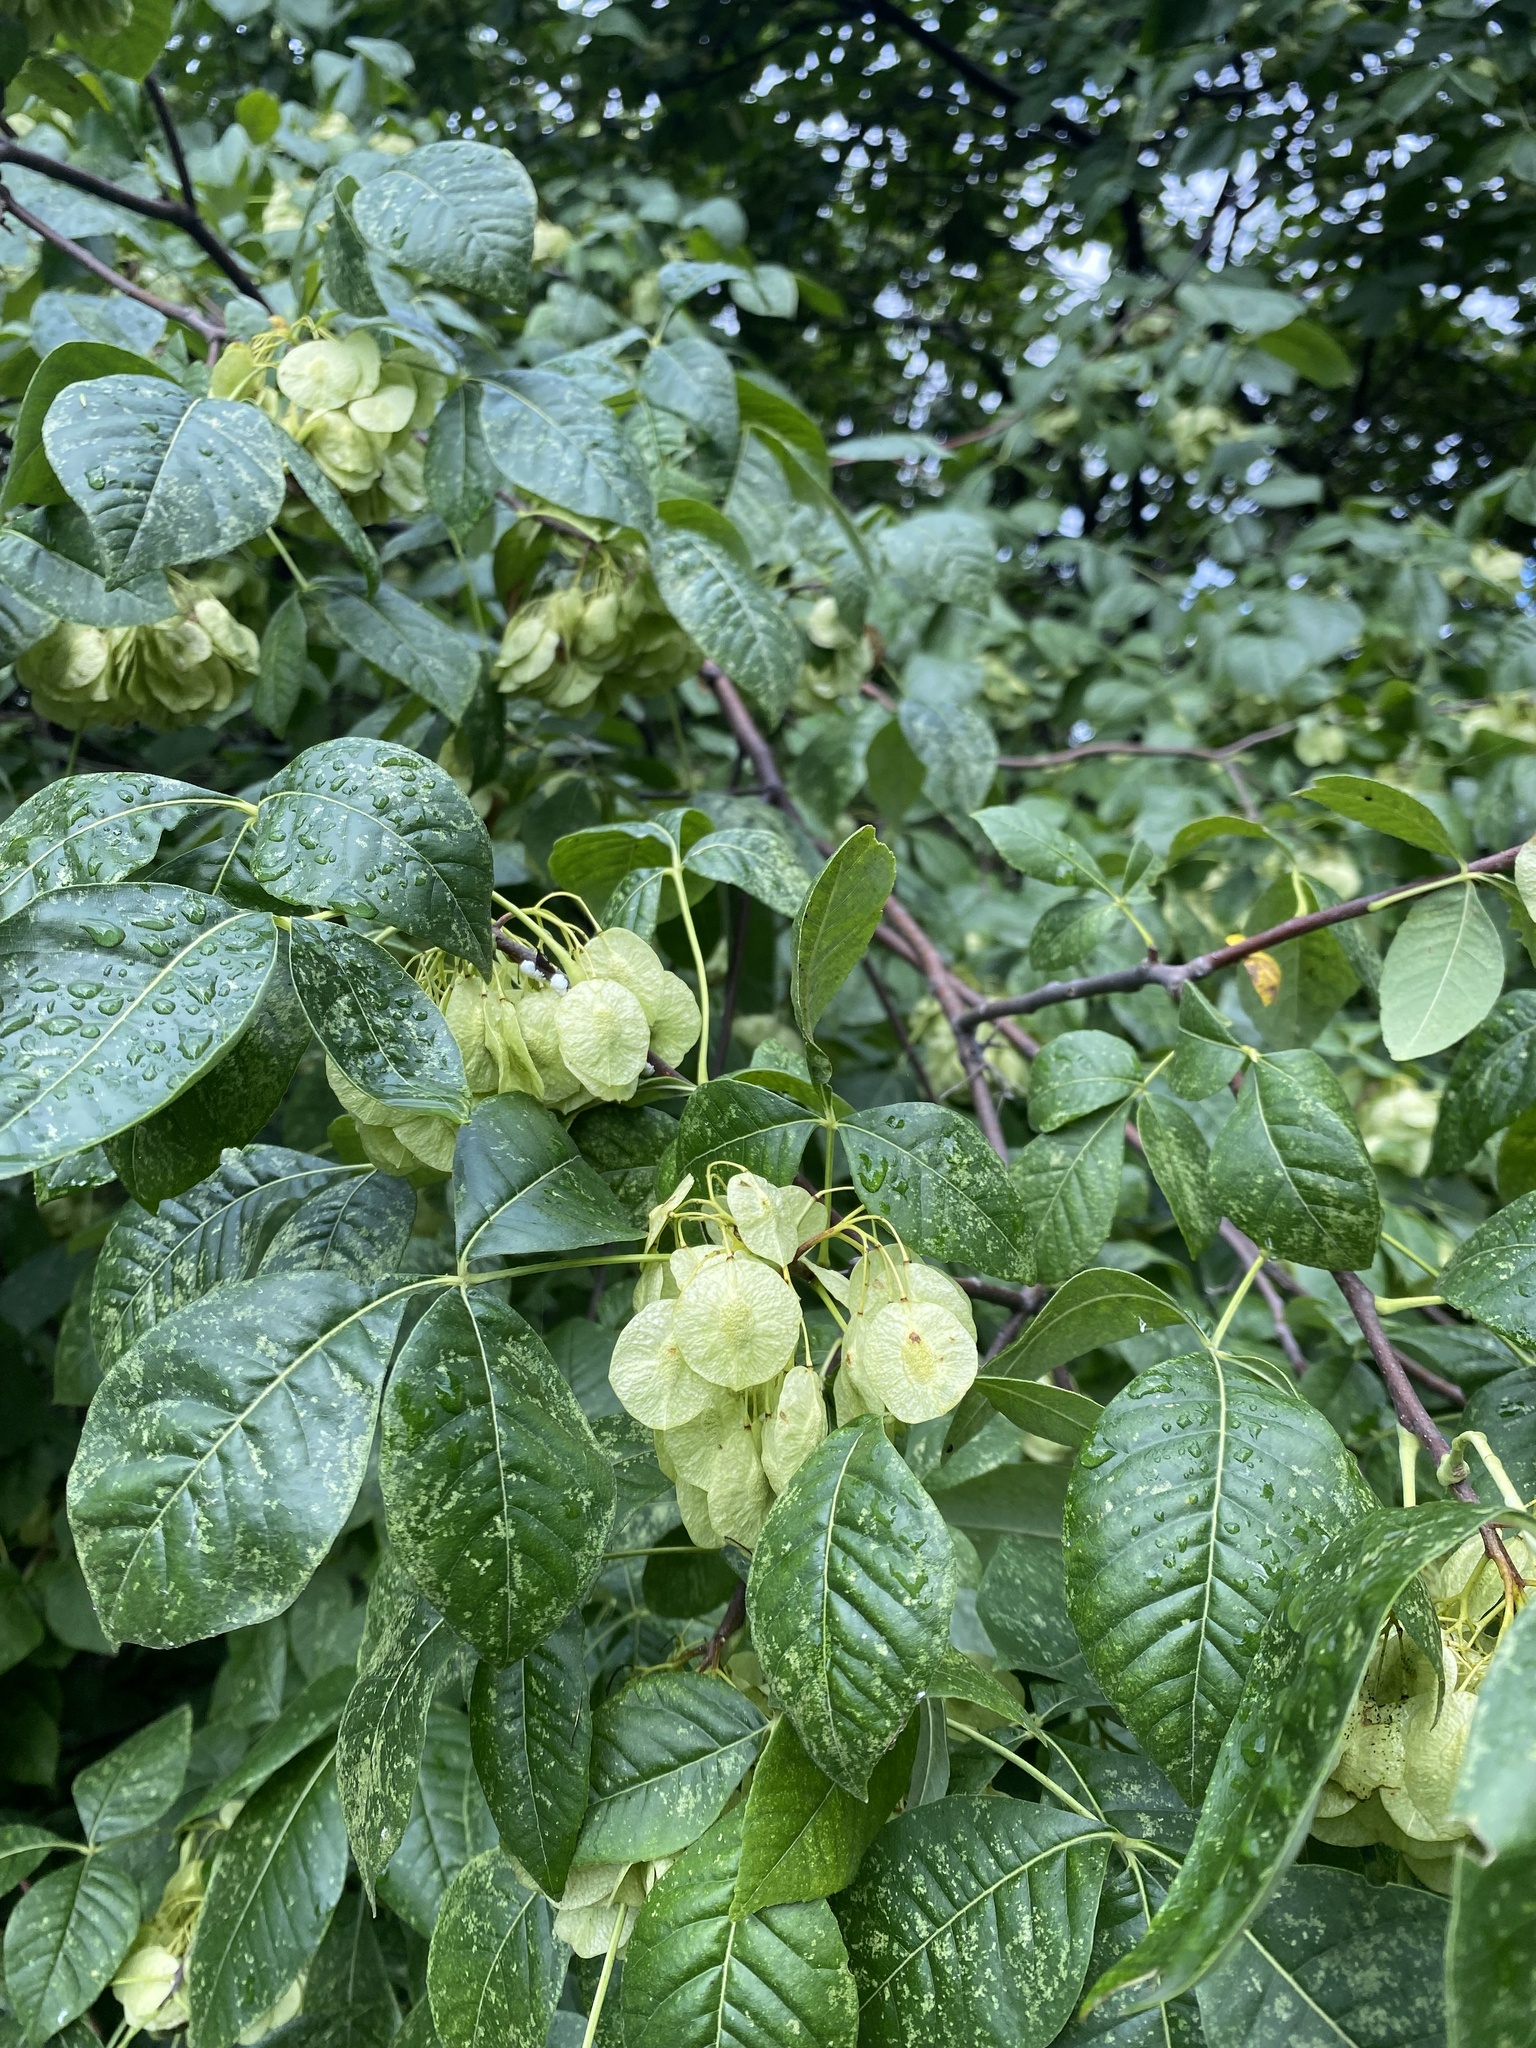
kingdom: Plantae
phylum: Tracheophyta
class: Magnoliopsida
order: Sapindales
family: Rutaceae
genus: Ptelea
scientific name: Ptelea trifoliata
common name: Common hop-tree
